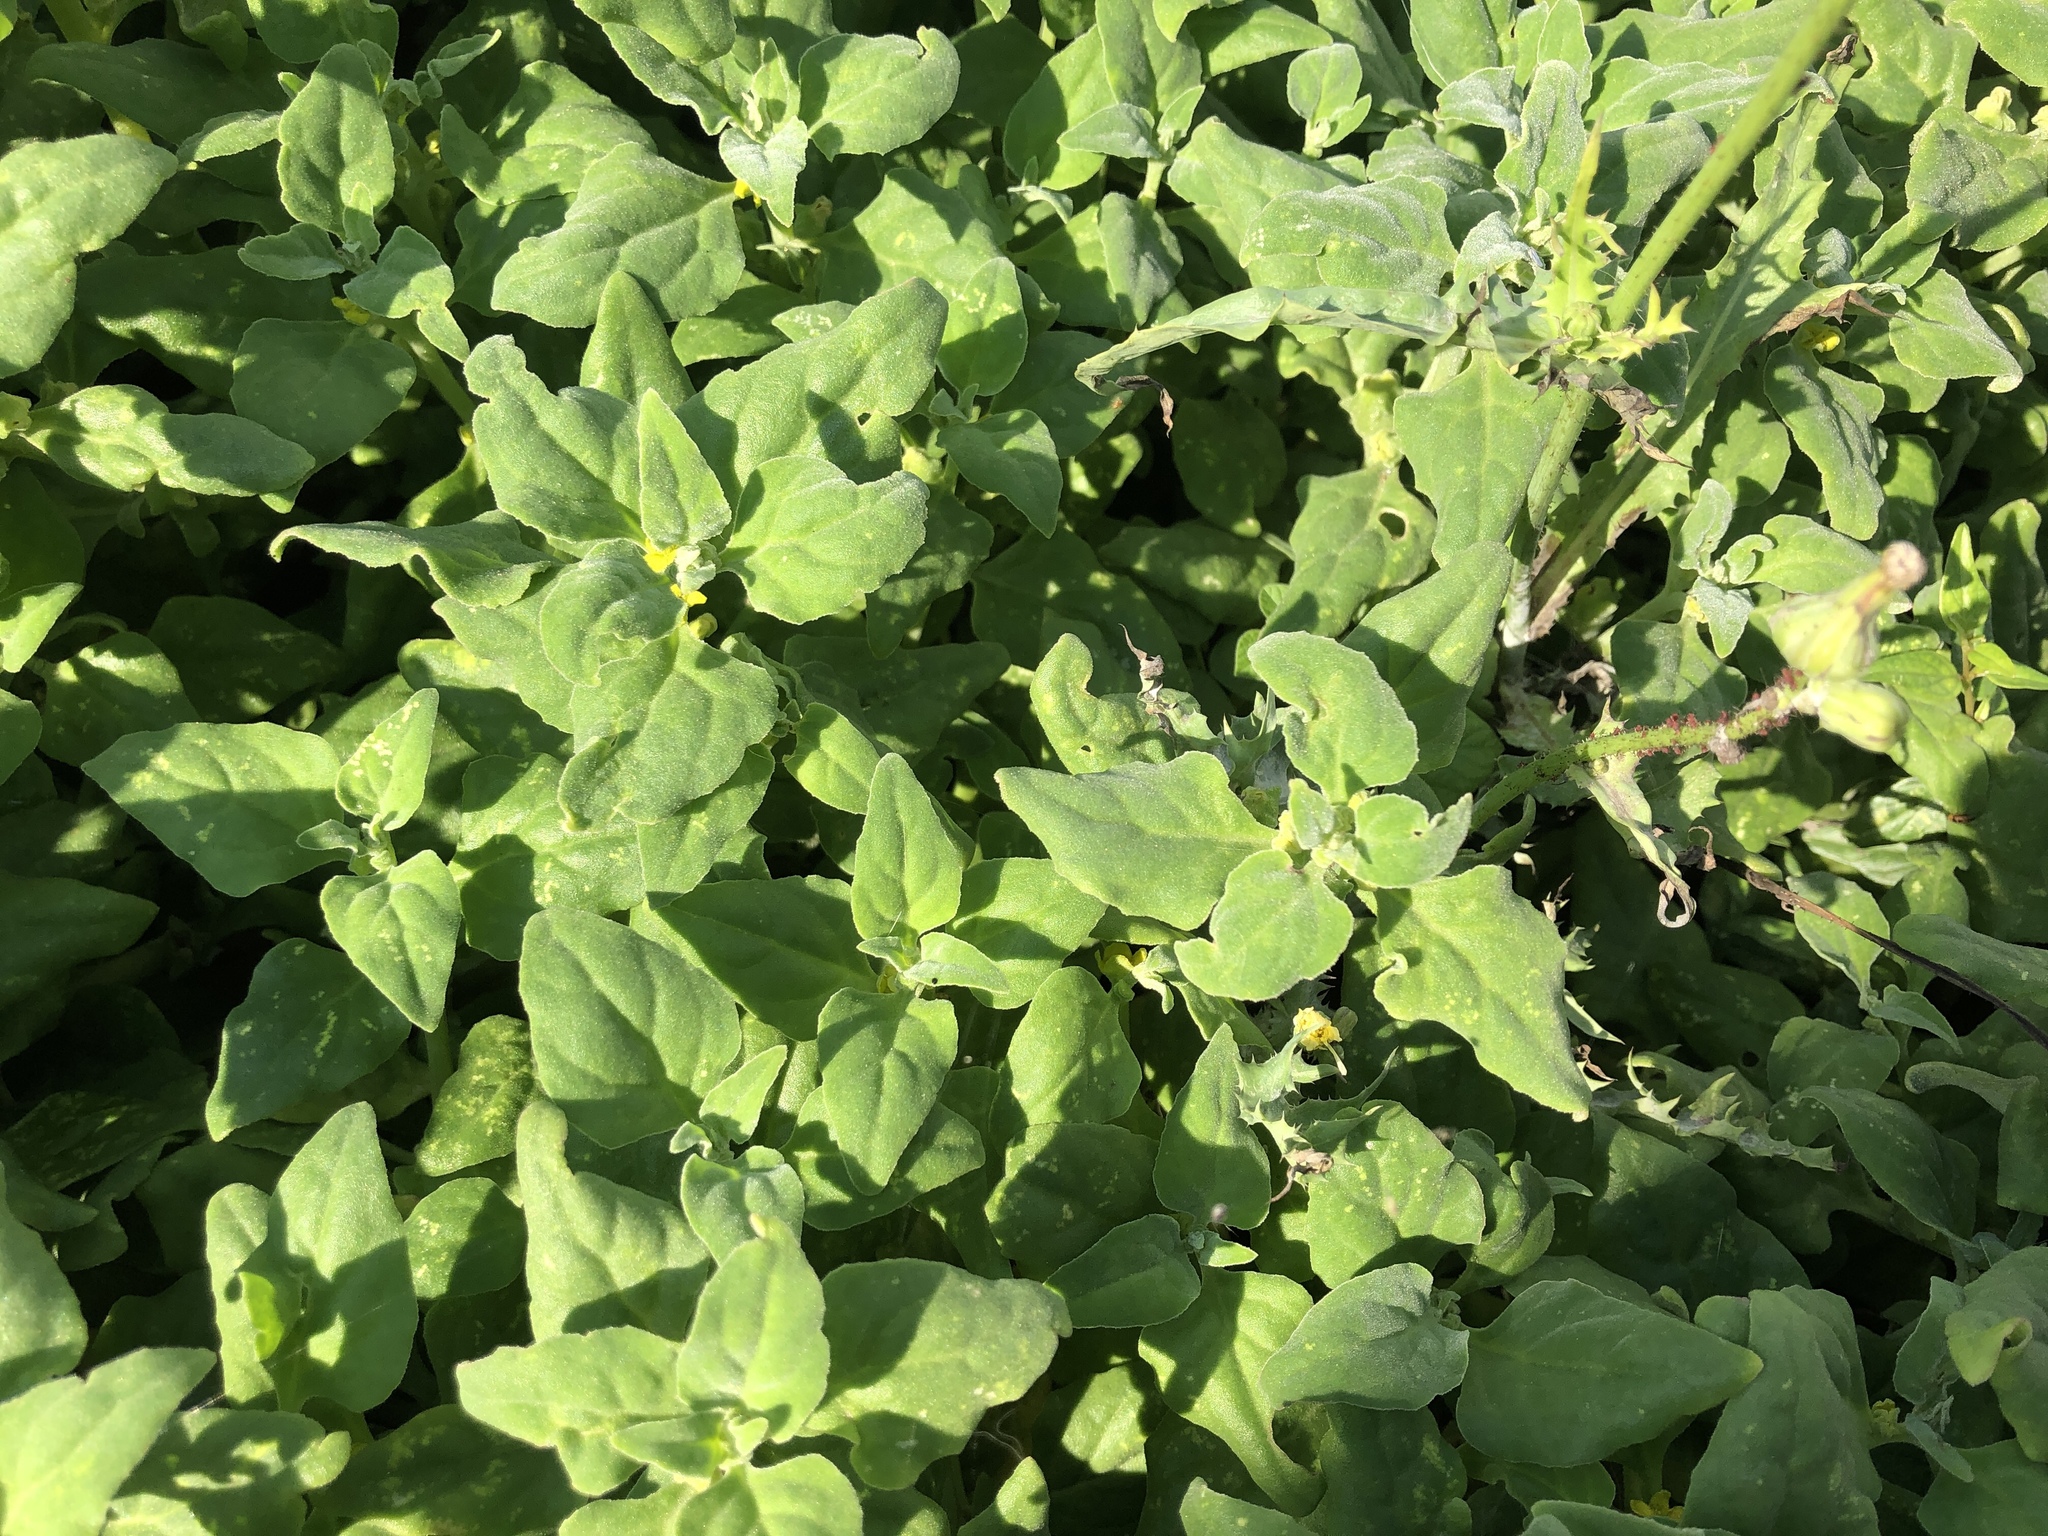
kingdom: Plantae
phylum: Tracheophyta
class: Magnoliopsida
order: Caryophyllales
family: Aizoaceae
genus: Tetragonia
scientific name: Tetragonia tetragonoides
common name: New zealand-spinach
